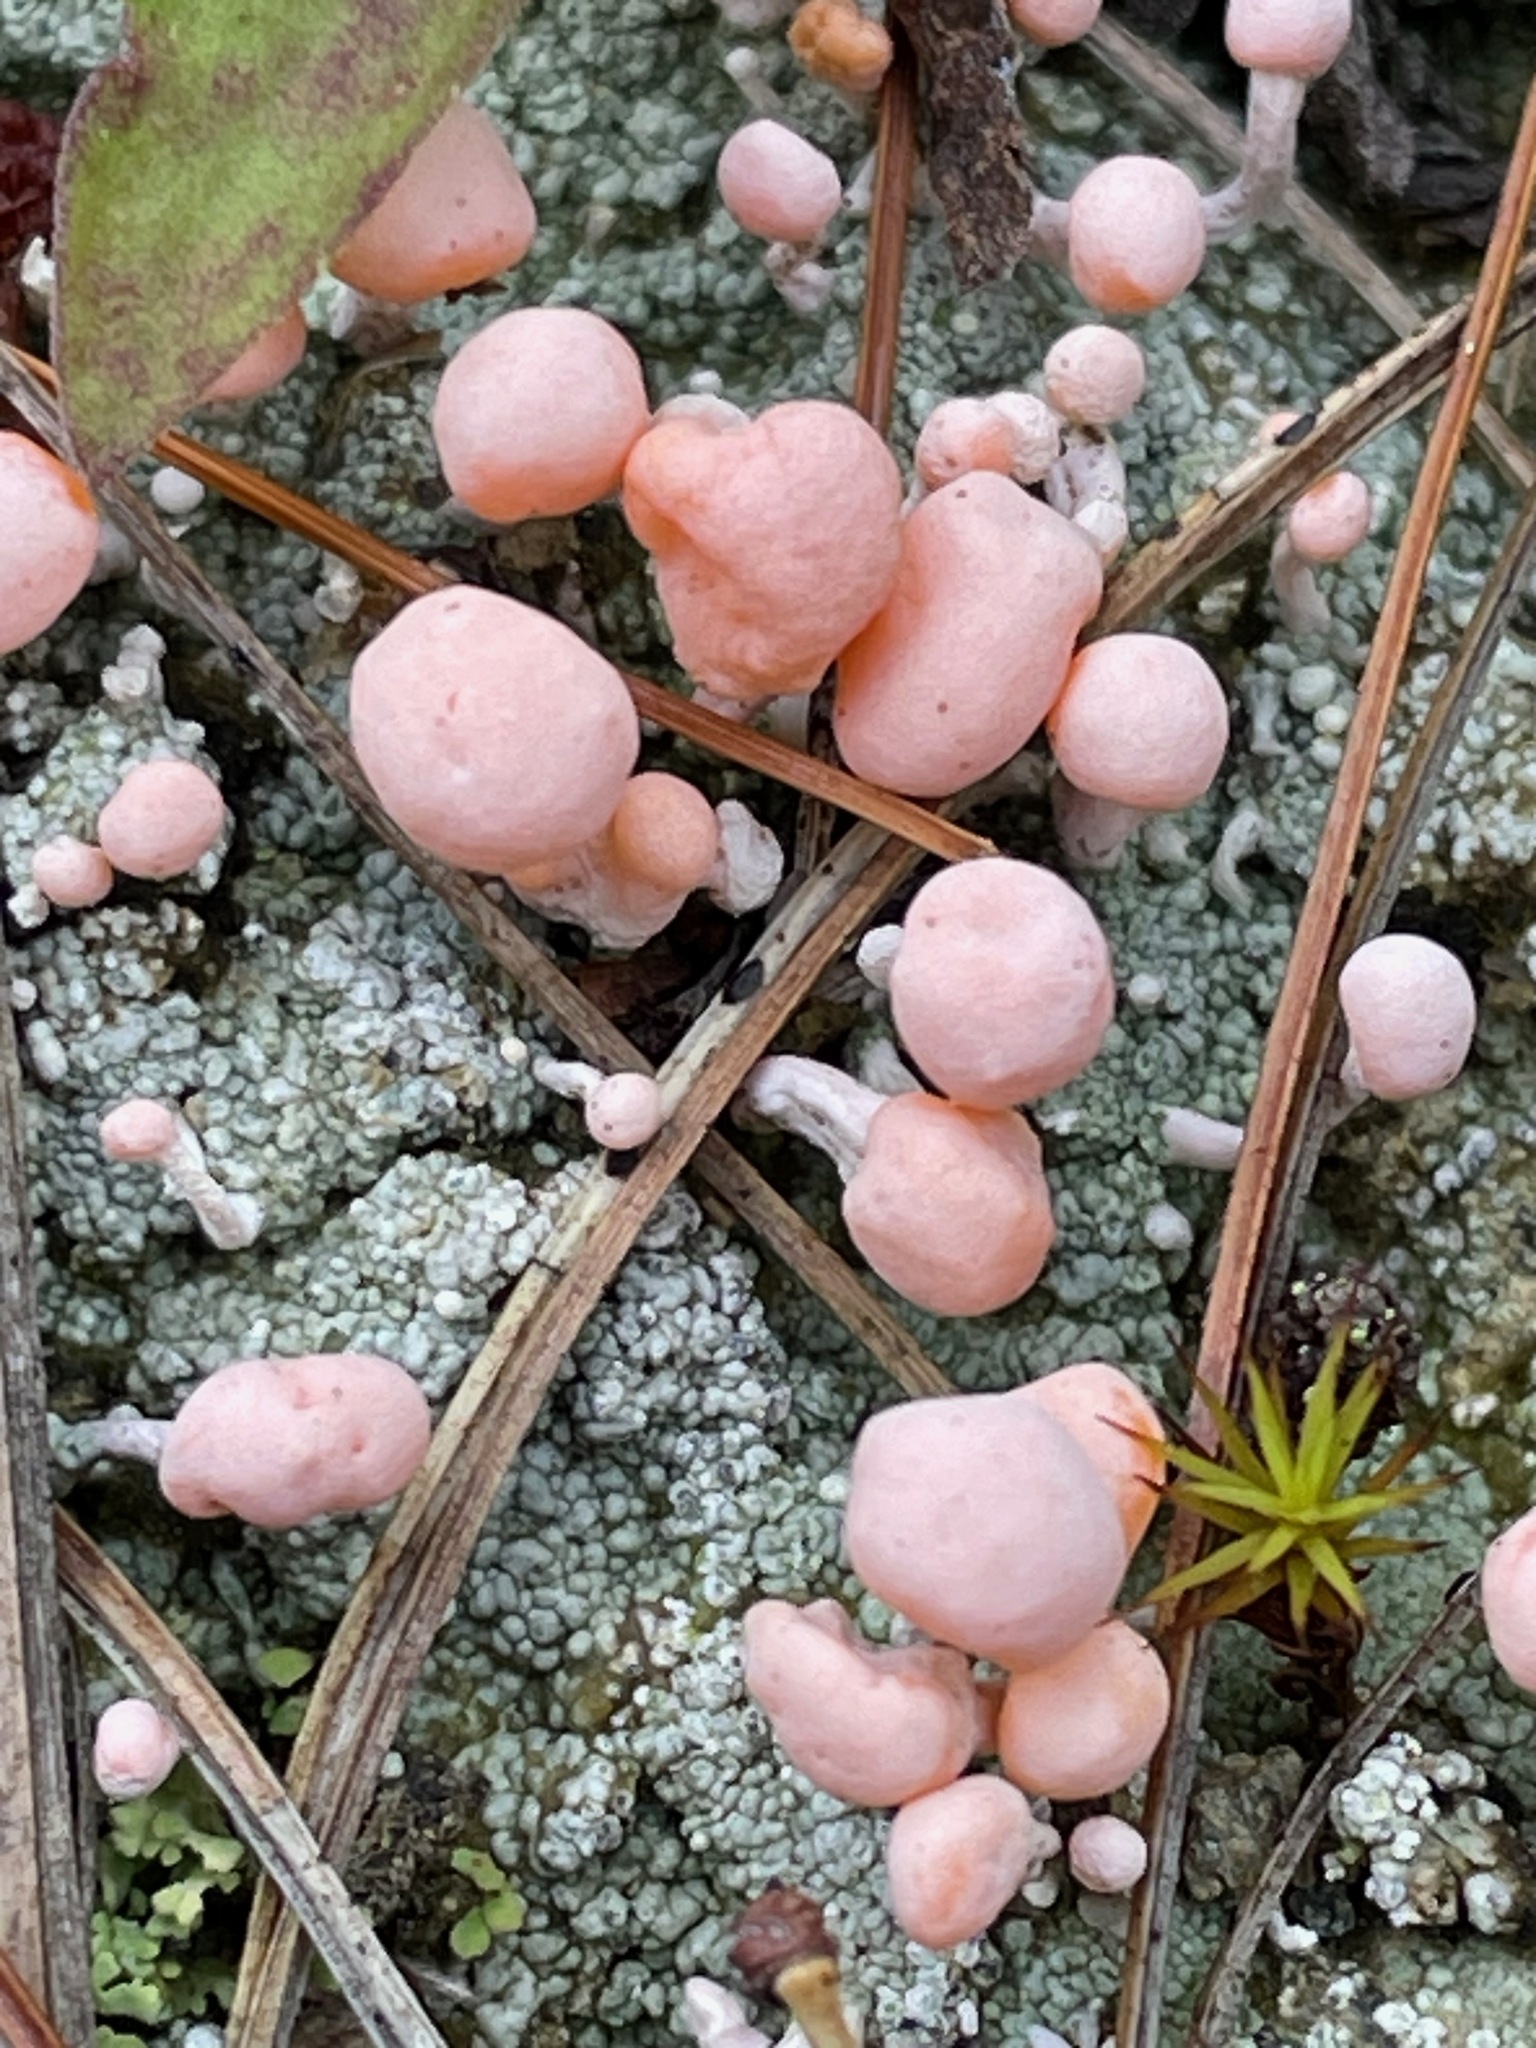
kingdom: Fungi
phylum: Ascomycota
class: Lecanoromycetes
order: Pertusariales
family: Icmadophilaceae
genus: Dibaeis
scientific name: Dibaeis baeomyces
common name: Pink earth lichen
